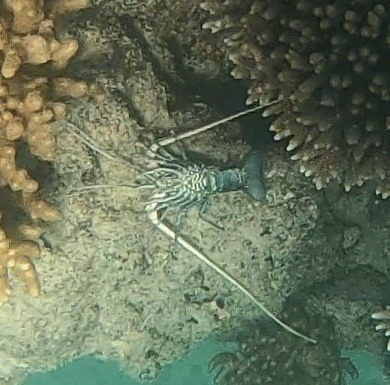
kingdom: Animalia
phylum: Arthropoda
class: Malacostraca
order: Decapoda
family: Palinuridae
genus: Panulirus
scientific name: Panulirus versicolor
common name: Painted spiny lobster
